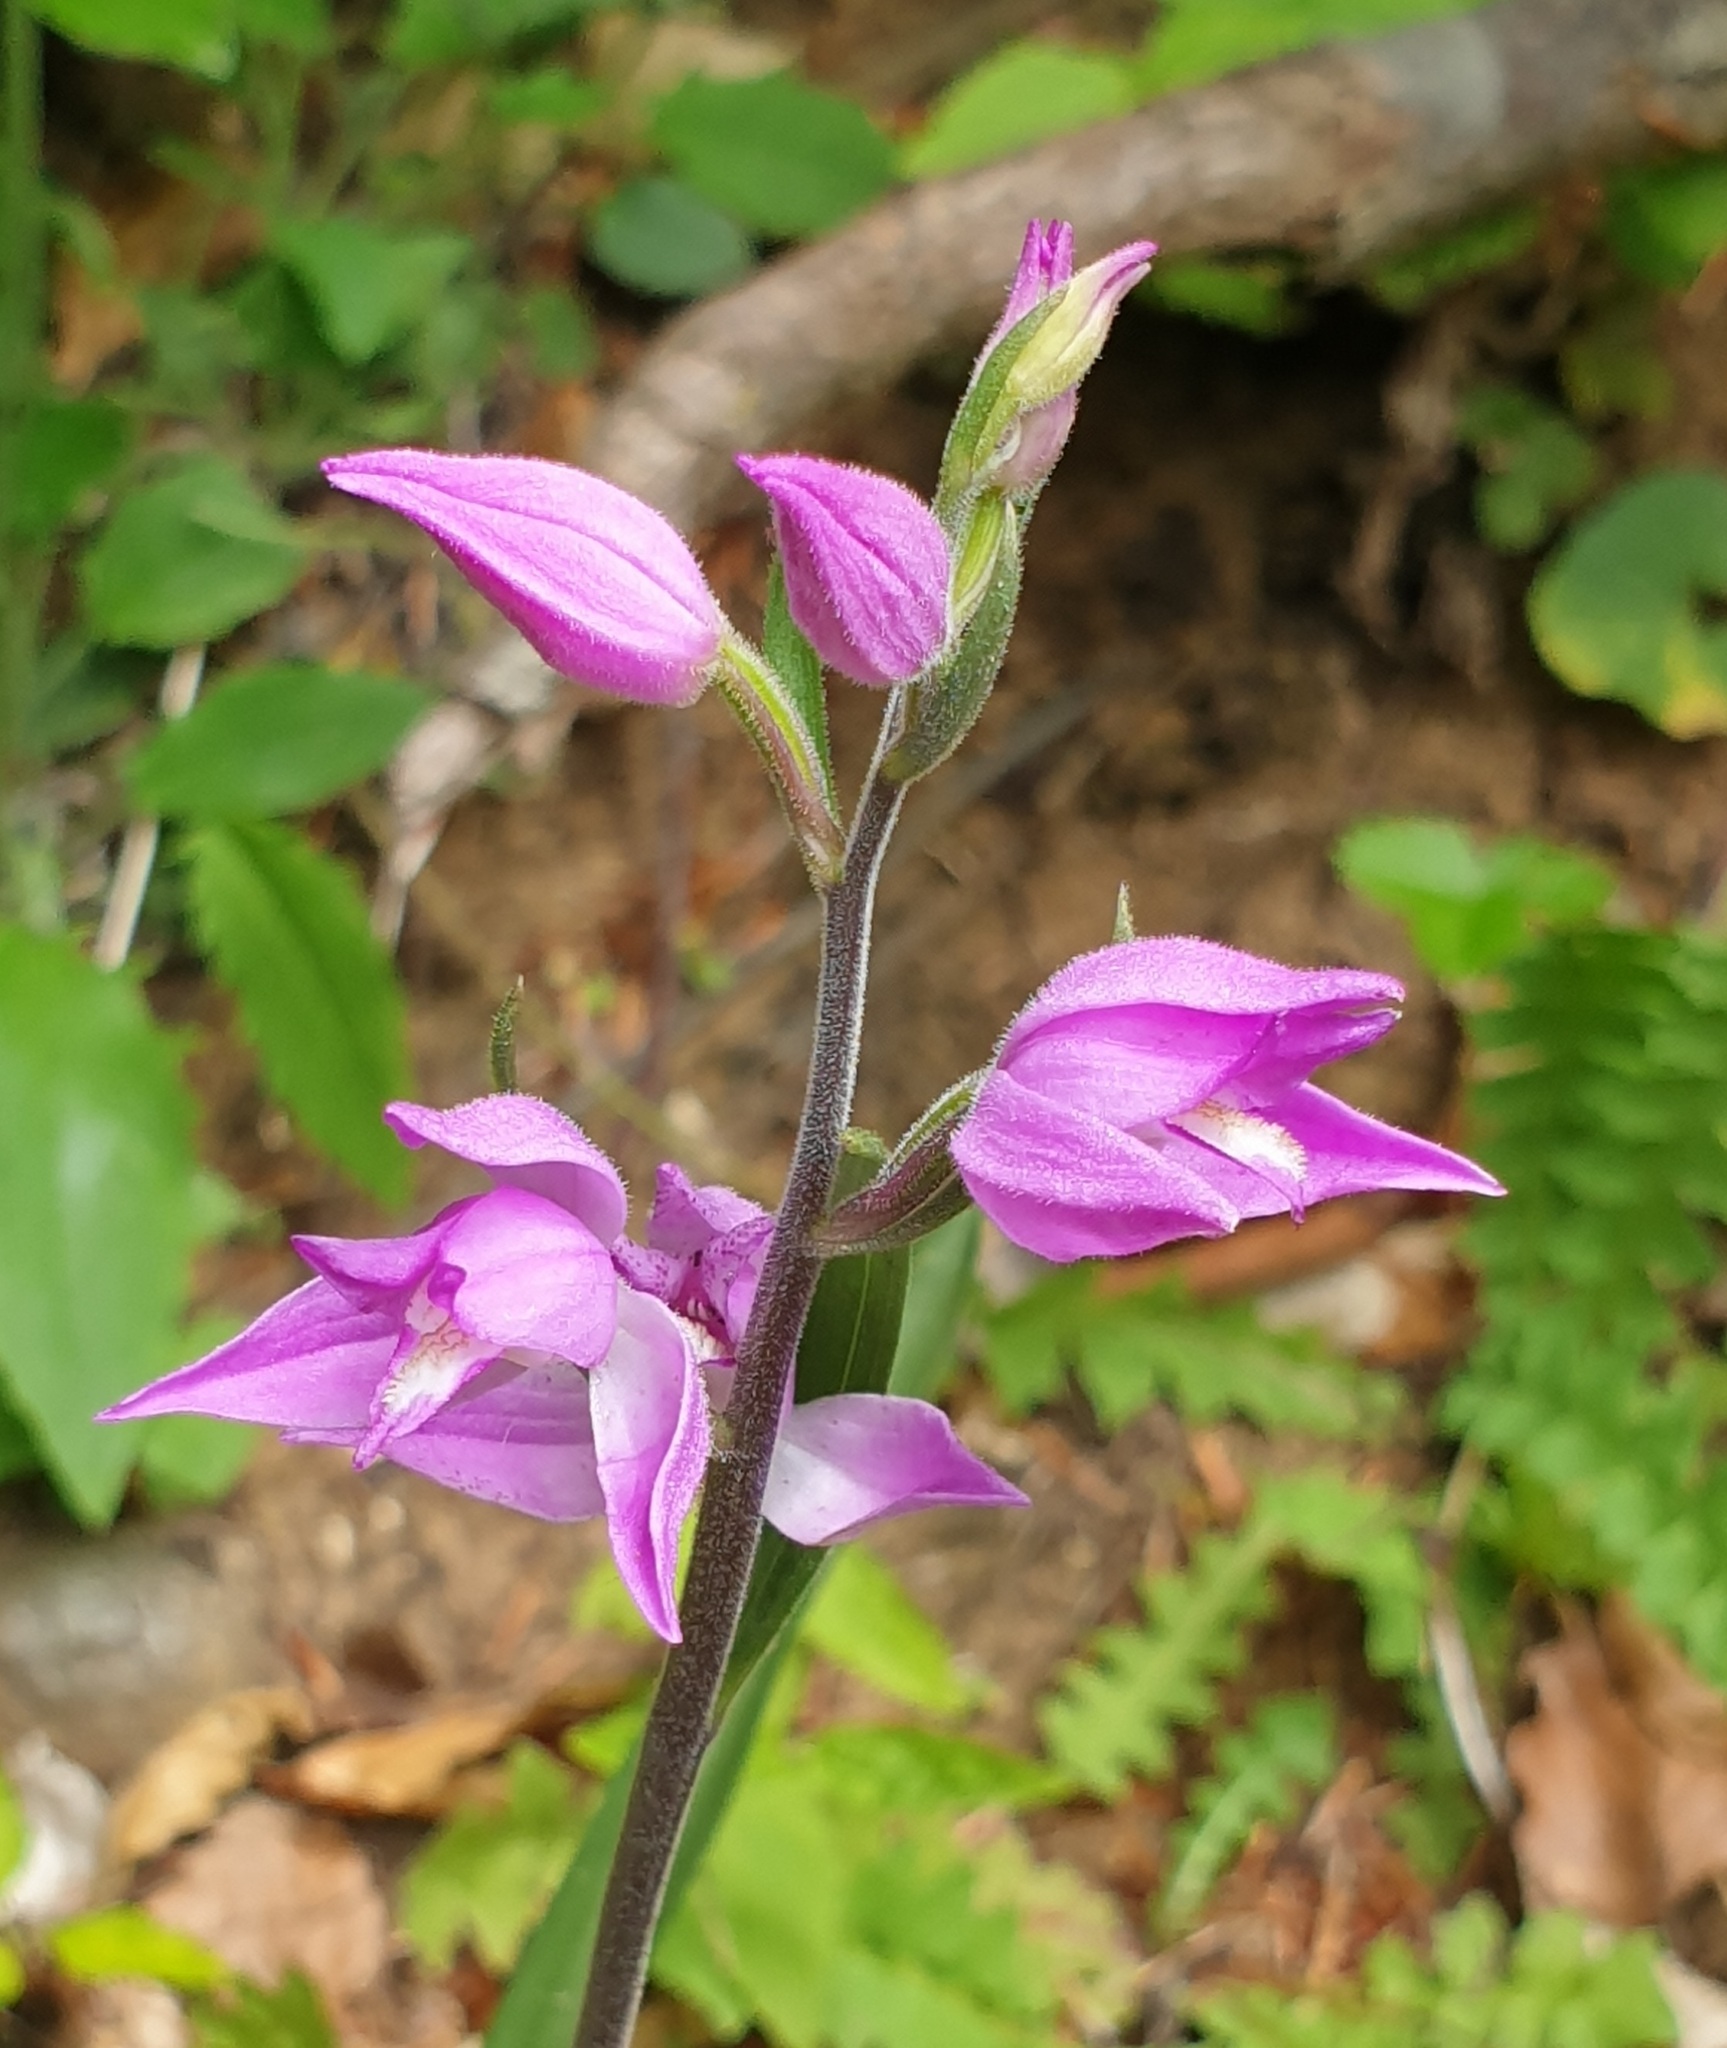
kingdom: Plantae
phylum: Tracheophyta
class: Liliopsida
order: Asparagales
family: Orchidaceae
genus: Cephalanthera
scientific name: Cephalanthera rubra
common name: Red helleborine
